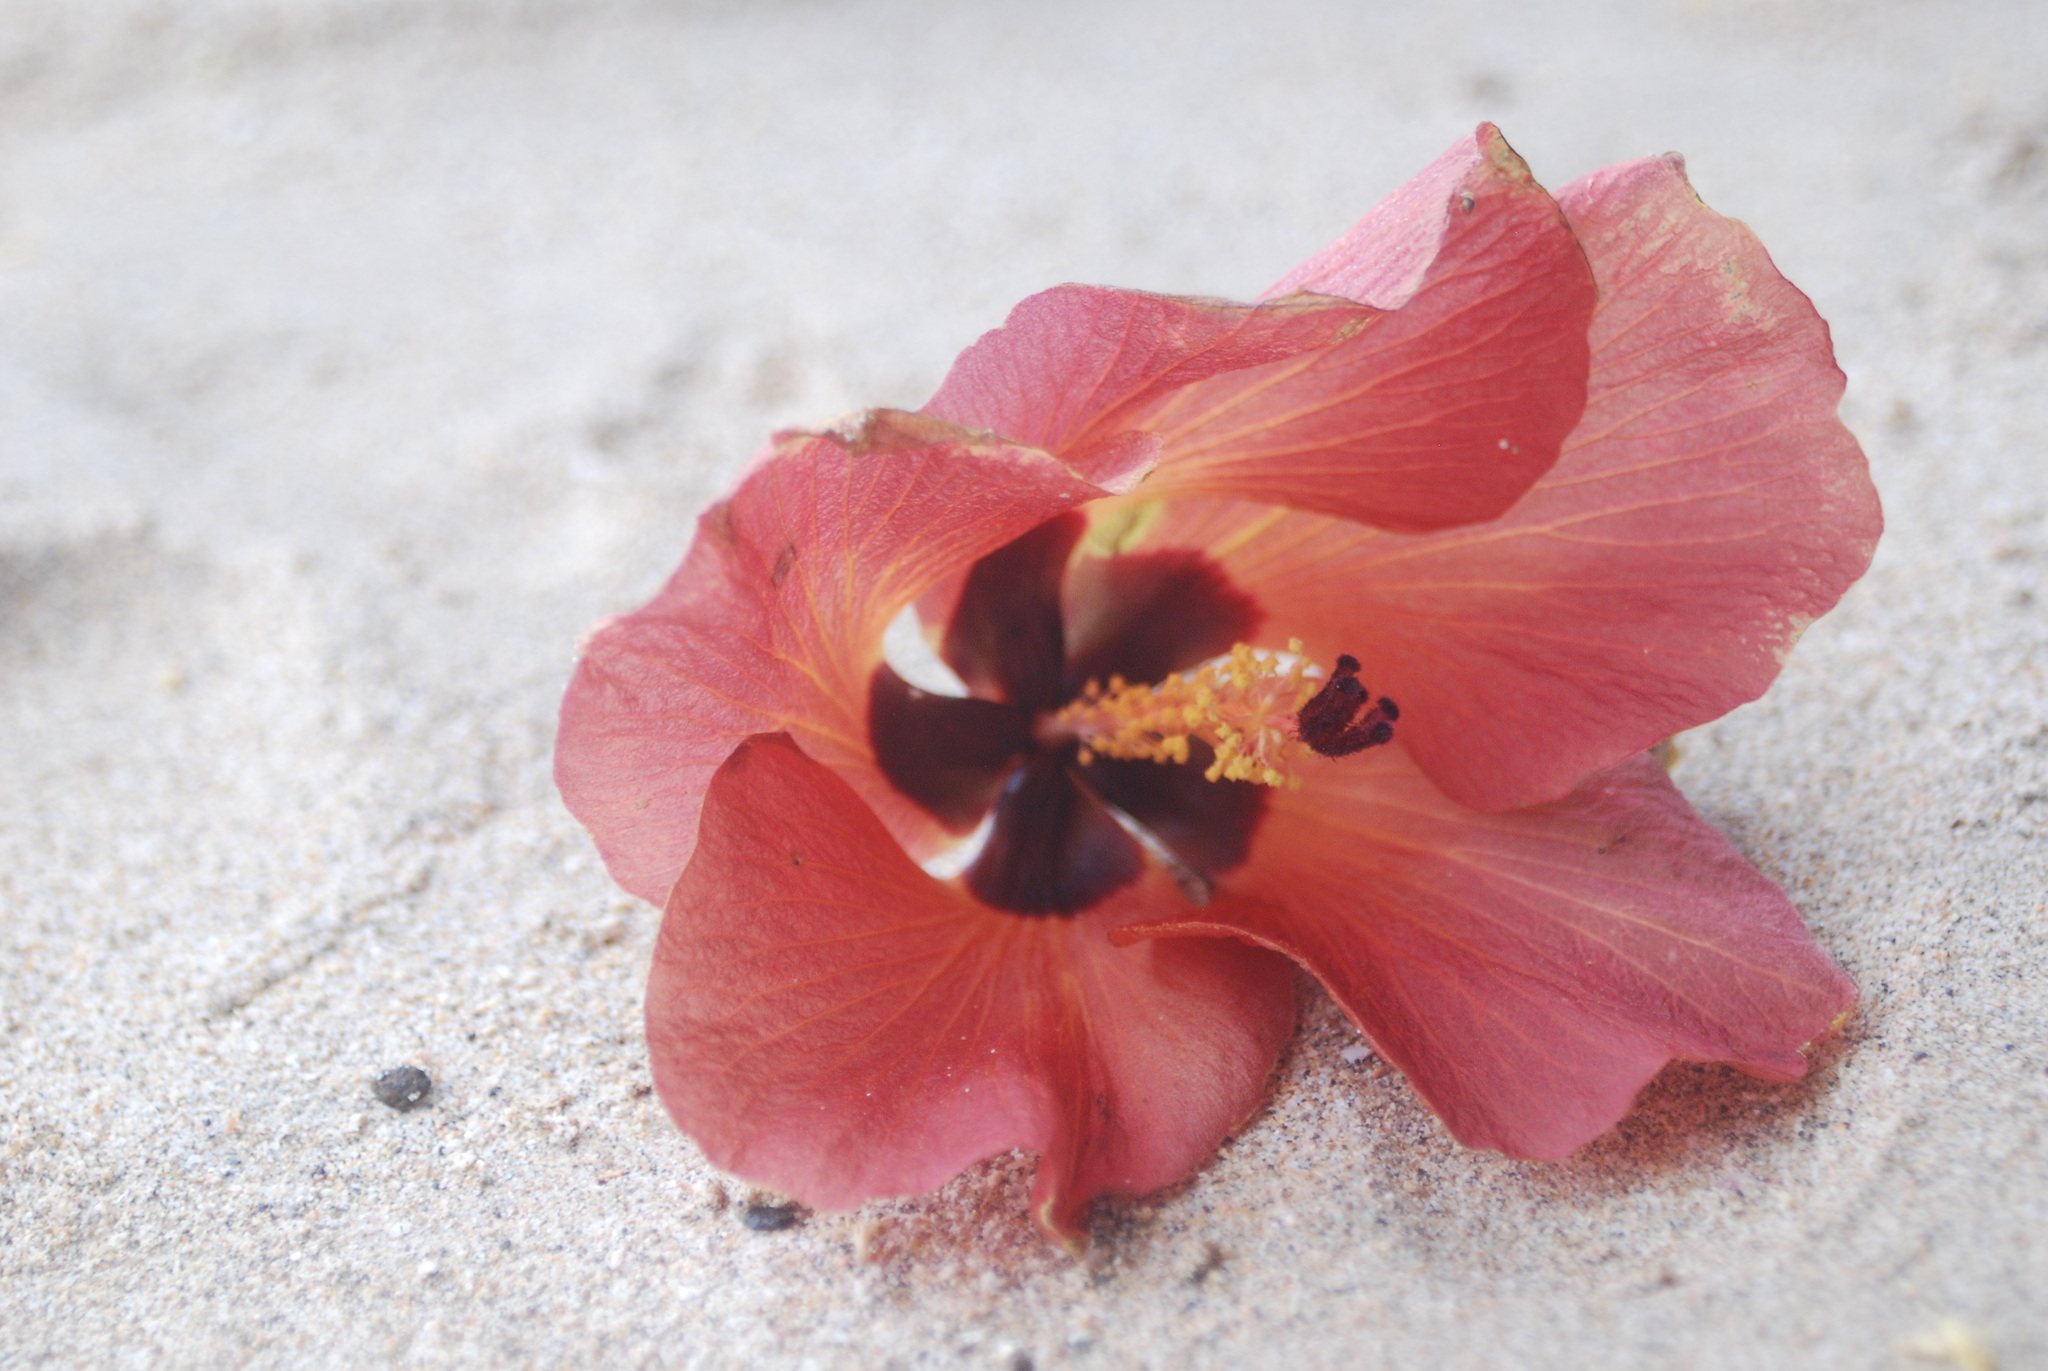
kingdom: Plantae
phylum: Tracheophyta
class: Magnoliopsida
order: Malvales
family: Malvaceae
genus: Talipariti
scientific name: Talipariti tiliaceum
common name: Sea hibiscus
